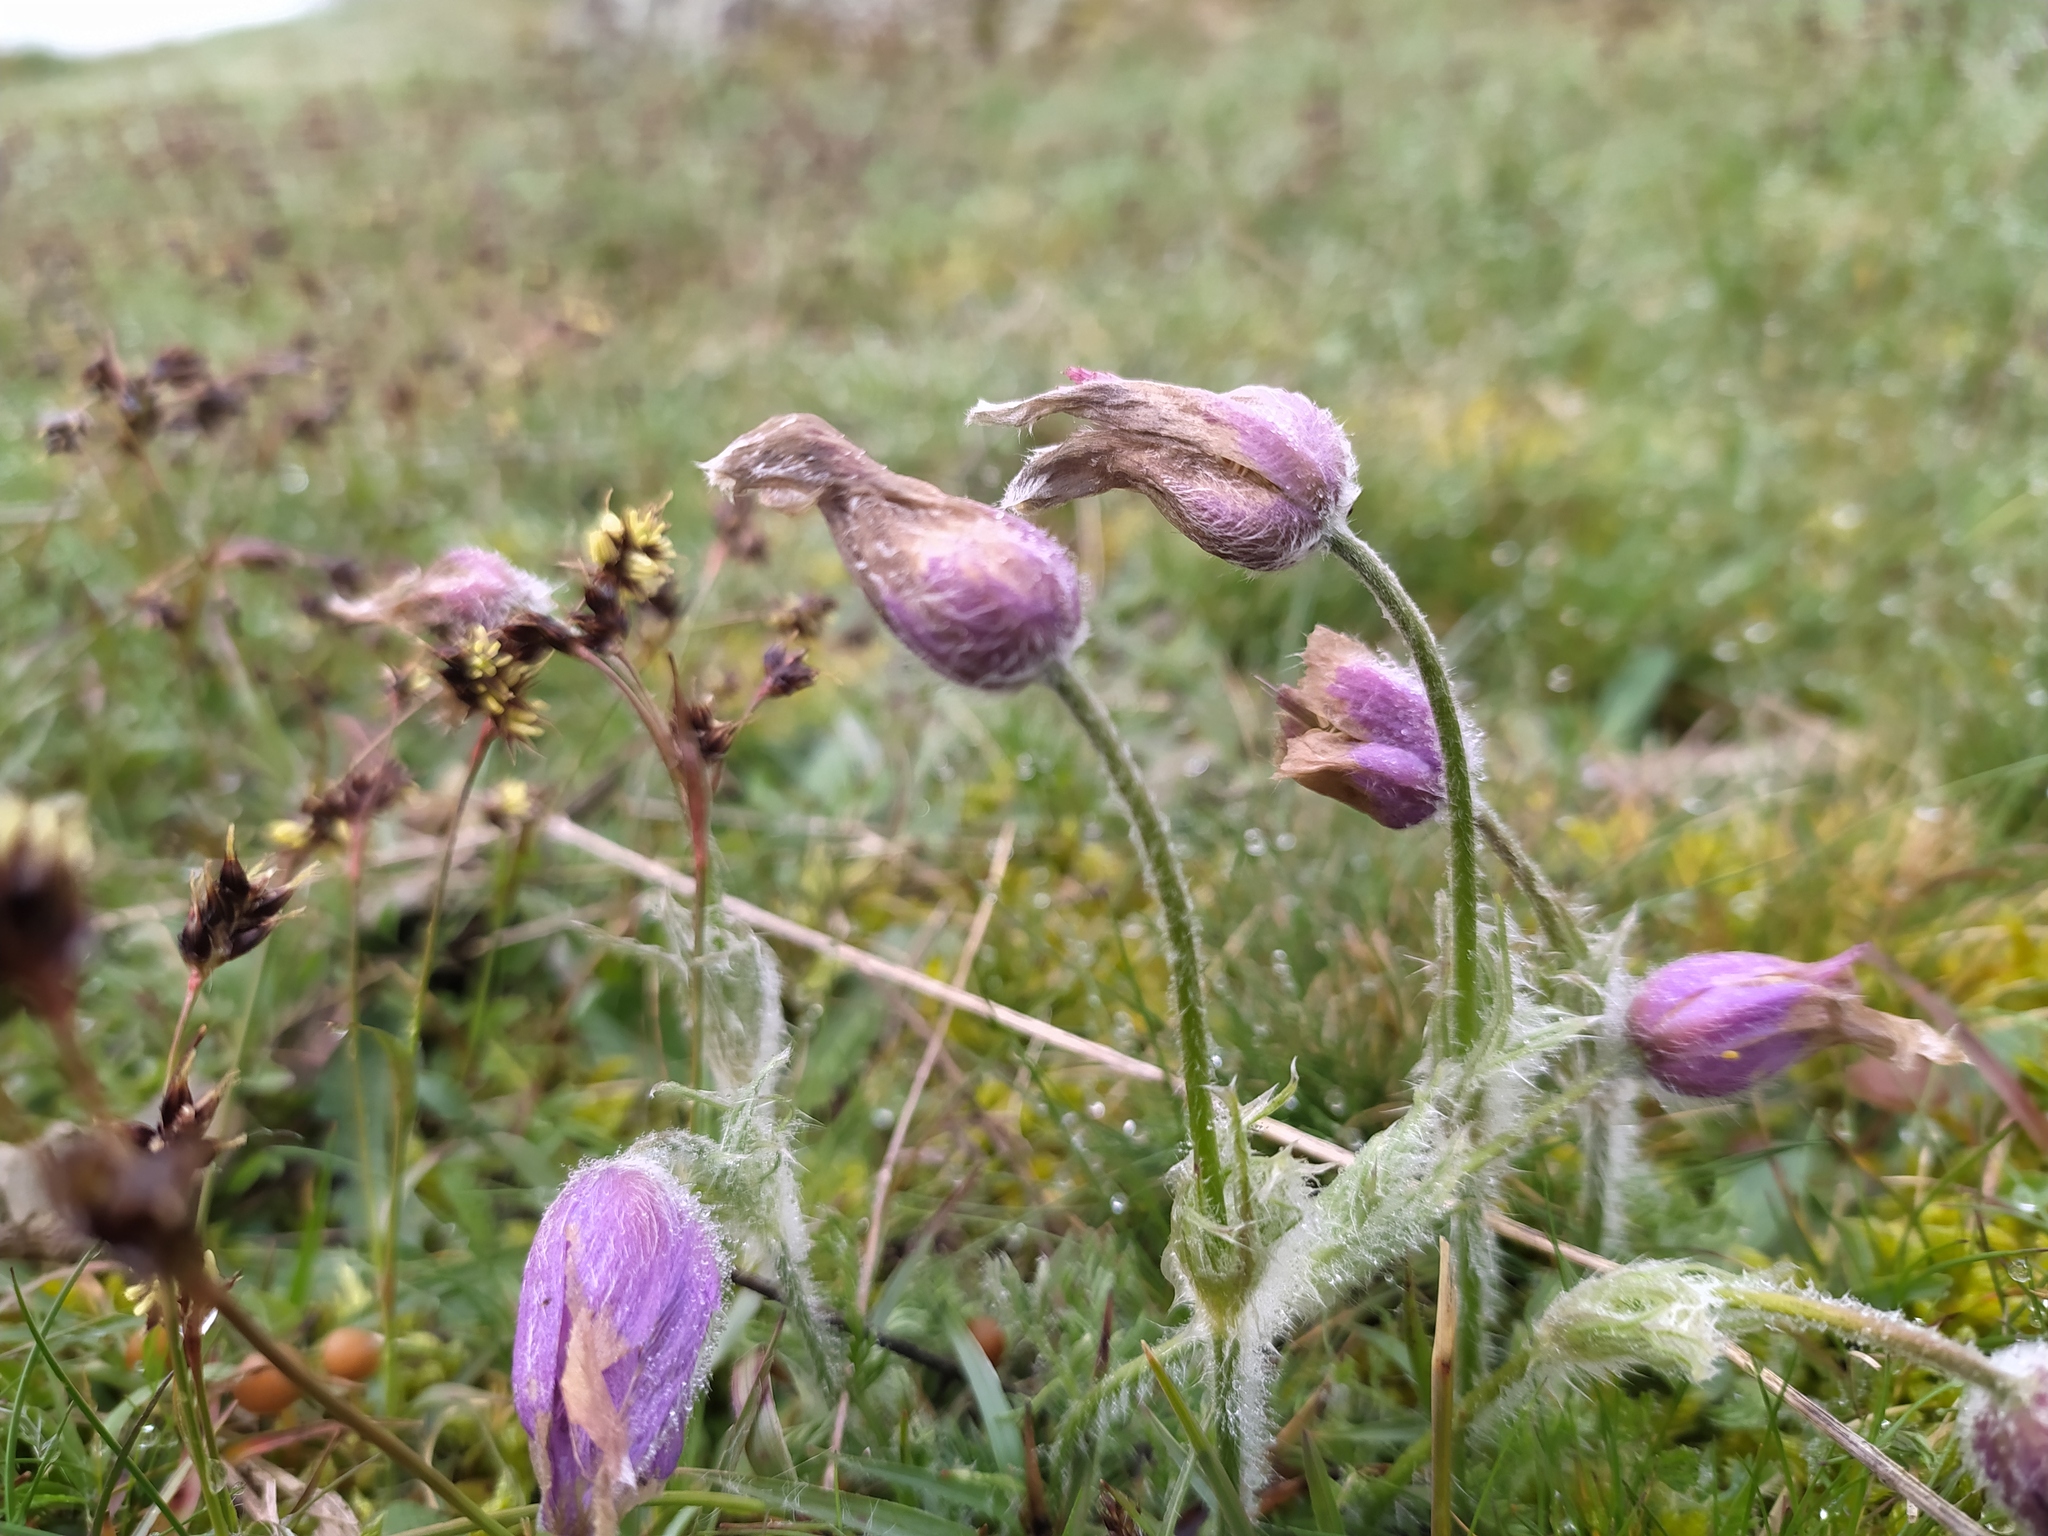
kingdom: Plantae
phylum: Tracheophyta
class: Magnoliopsida
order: Ranunculales
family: Ranunculaceae
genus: Pulsatilla
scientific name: Pulsatilla vulgaris
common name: Pasqueflower
